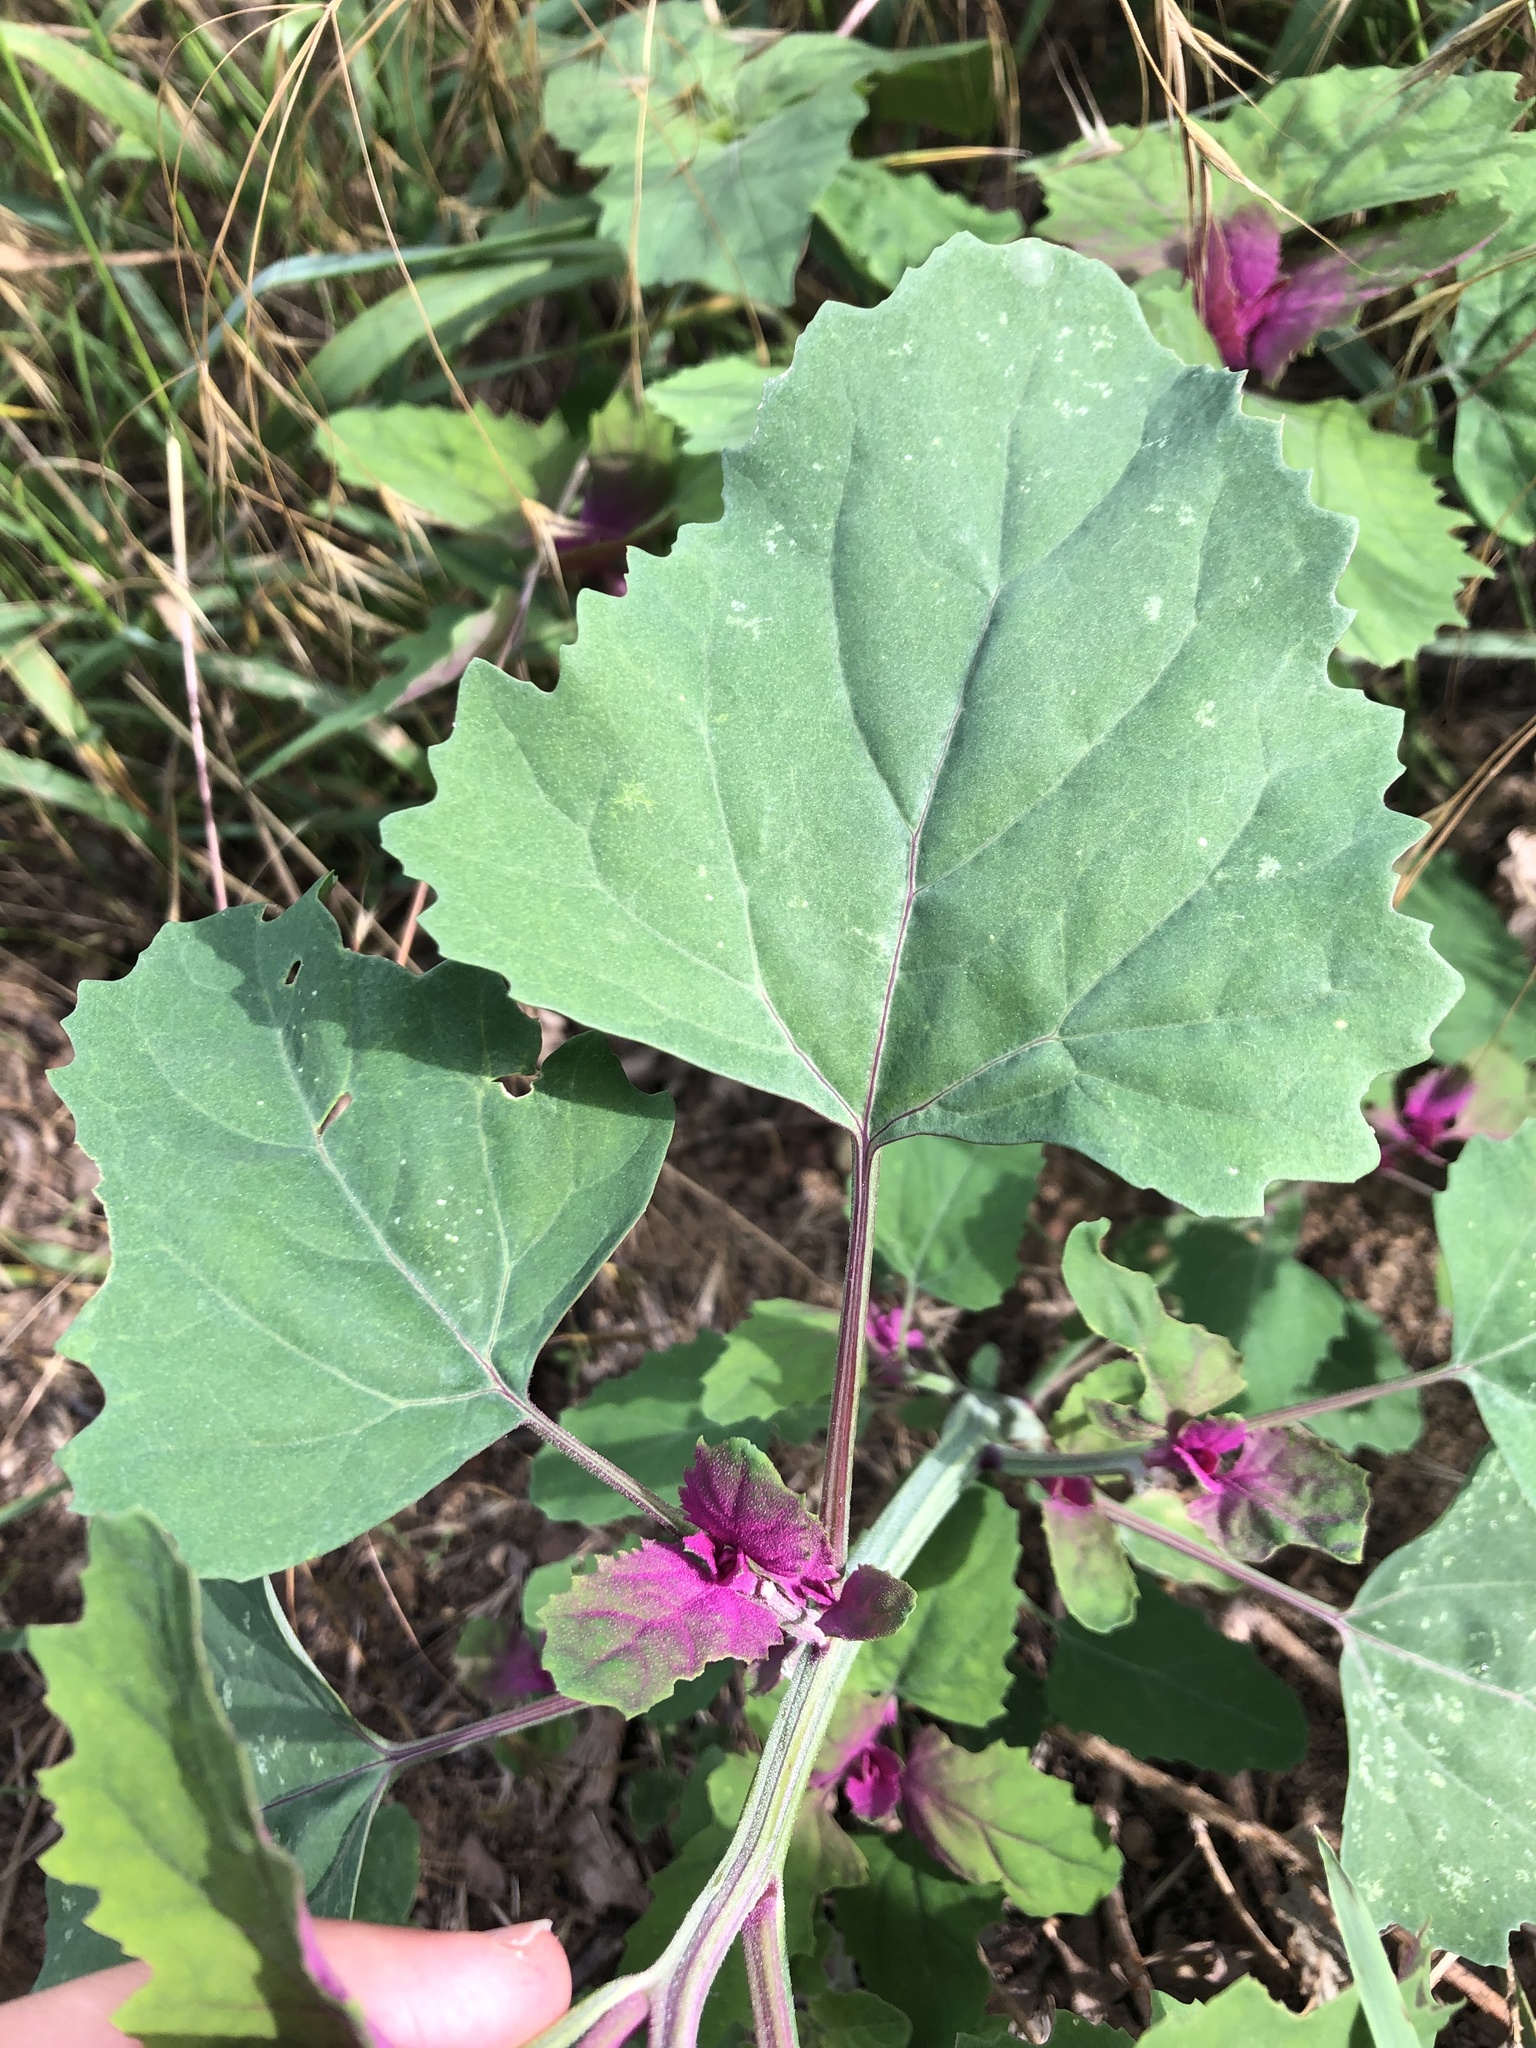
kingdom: Plantae
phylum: Tracheophyta
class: Magnoliopsida
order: Caryophyllales
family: Amaranthaceae
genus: Chenopodium
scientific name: Chenopodium giganteum
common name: Magentaspreen
